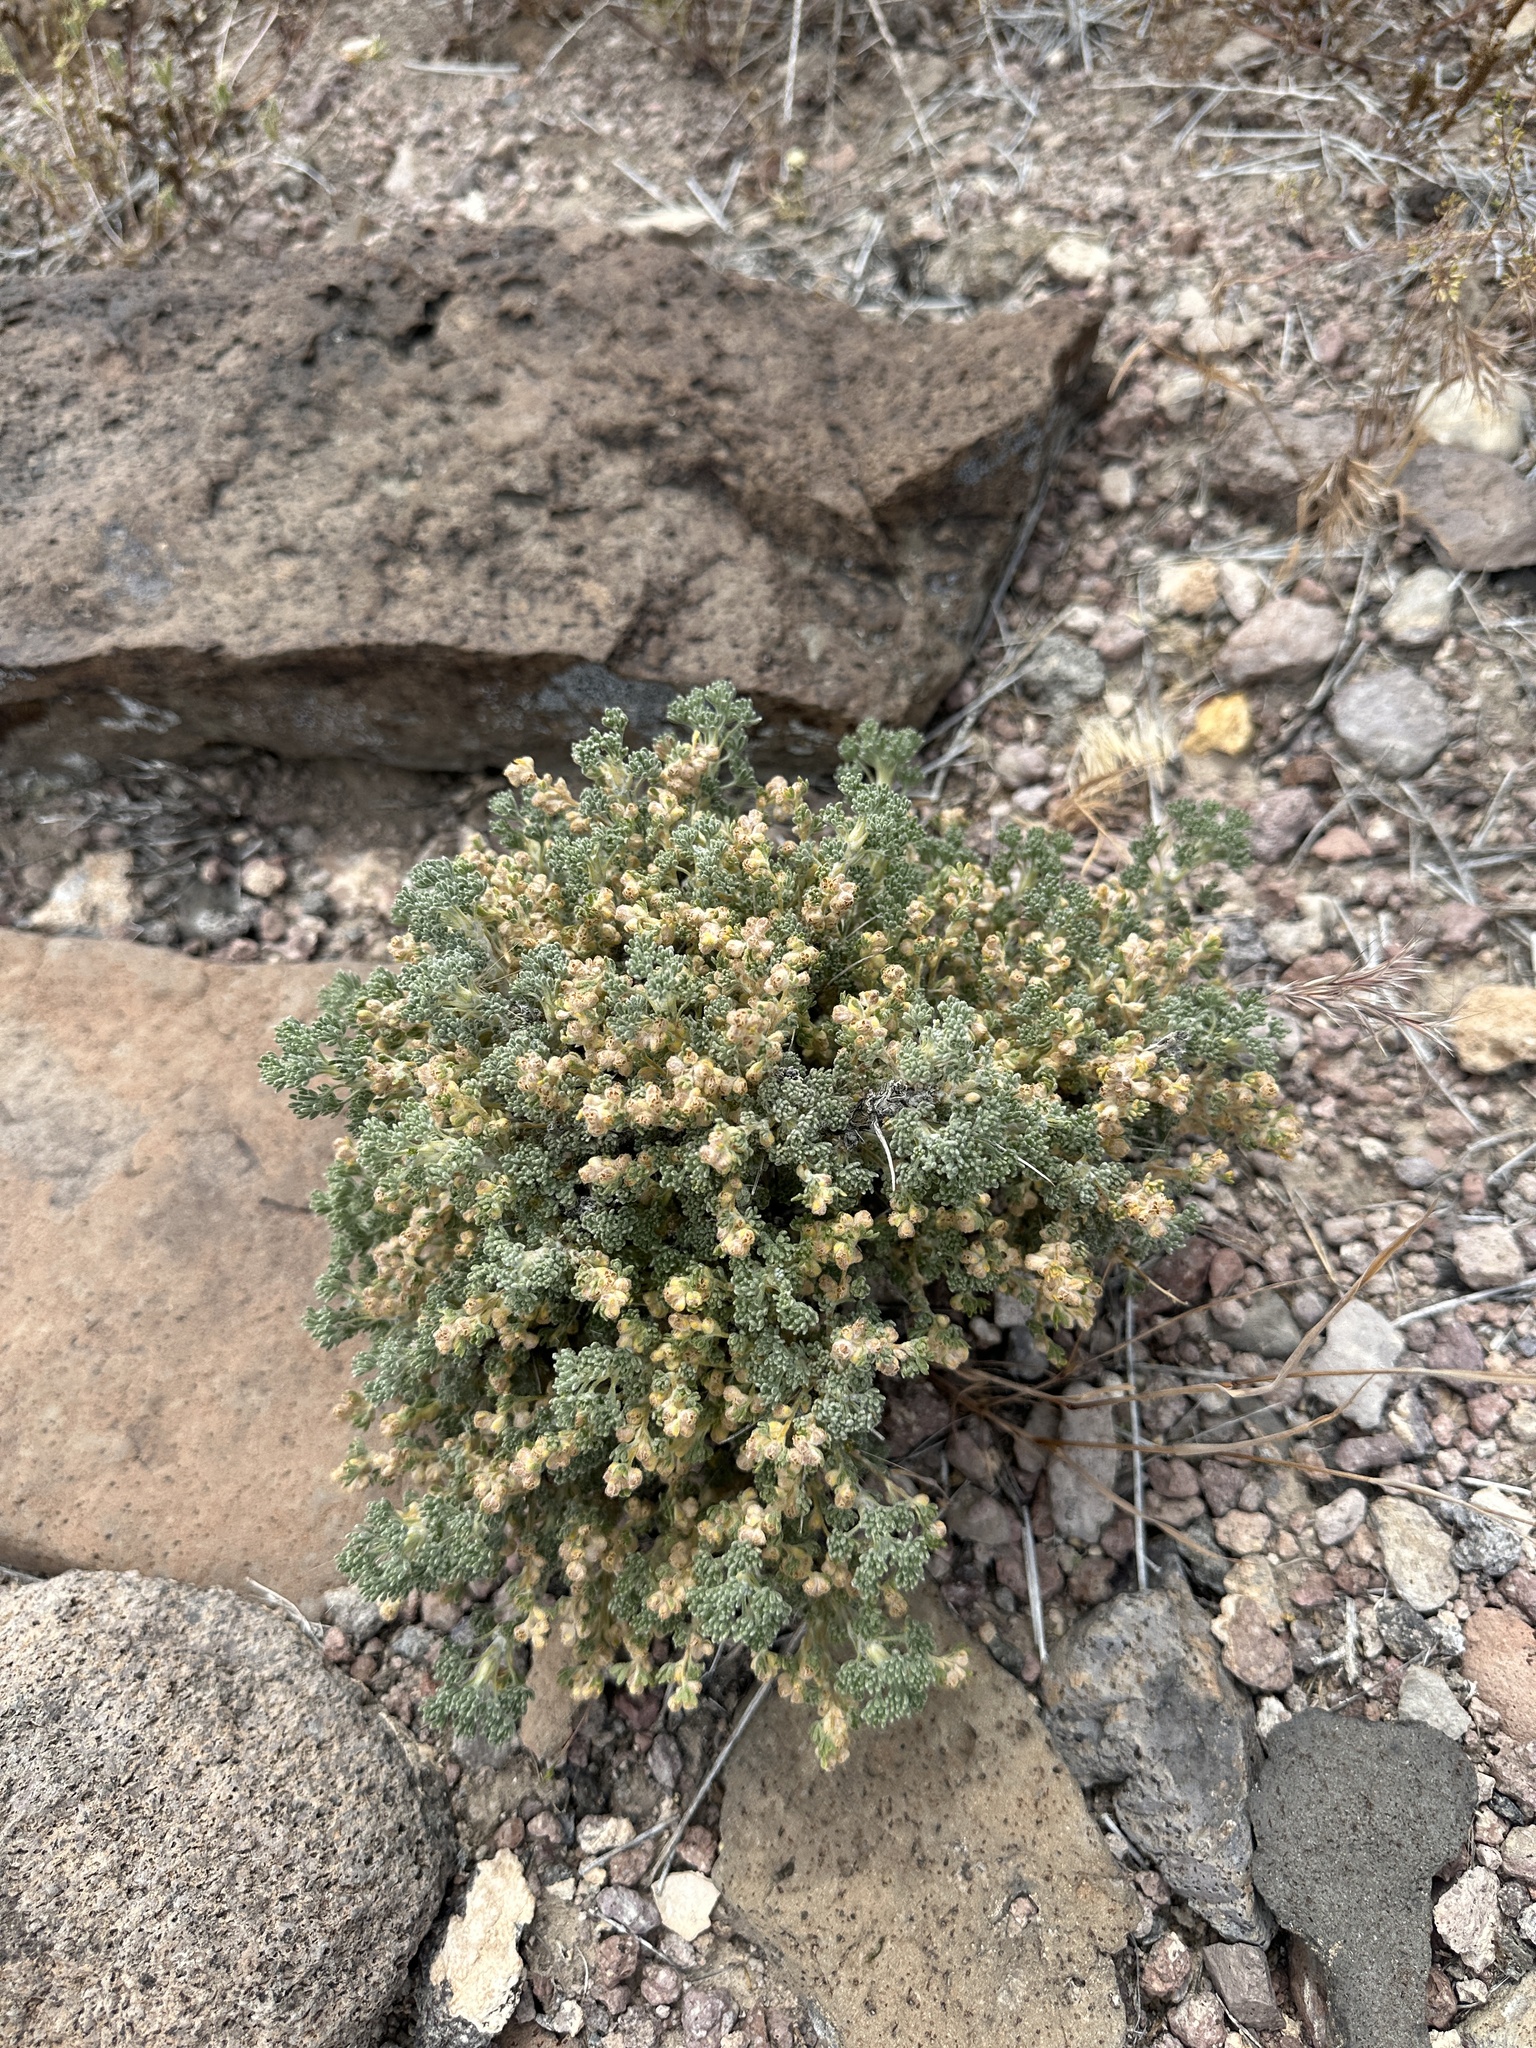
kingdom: Plantae
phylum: Tracheophyta
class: Magnoliopsida
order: Asterales
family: Asteraceae
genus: Artemisia
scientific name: Artemisia spinescens
